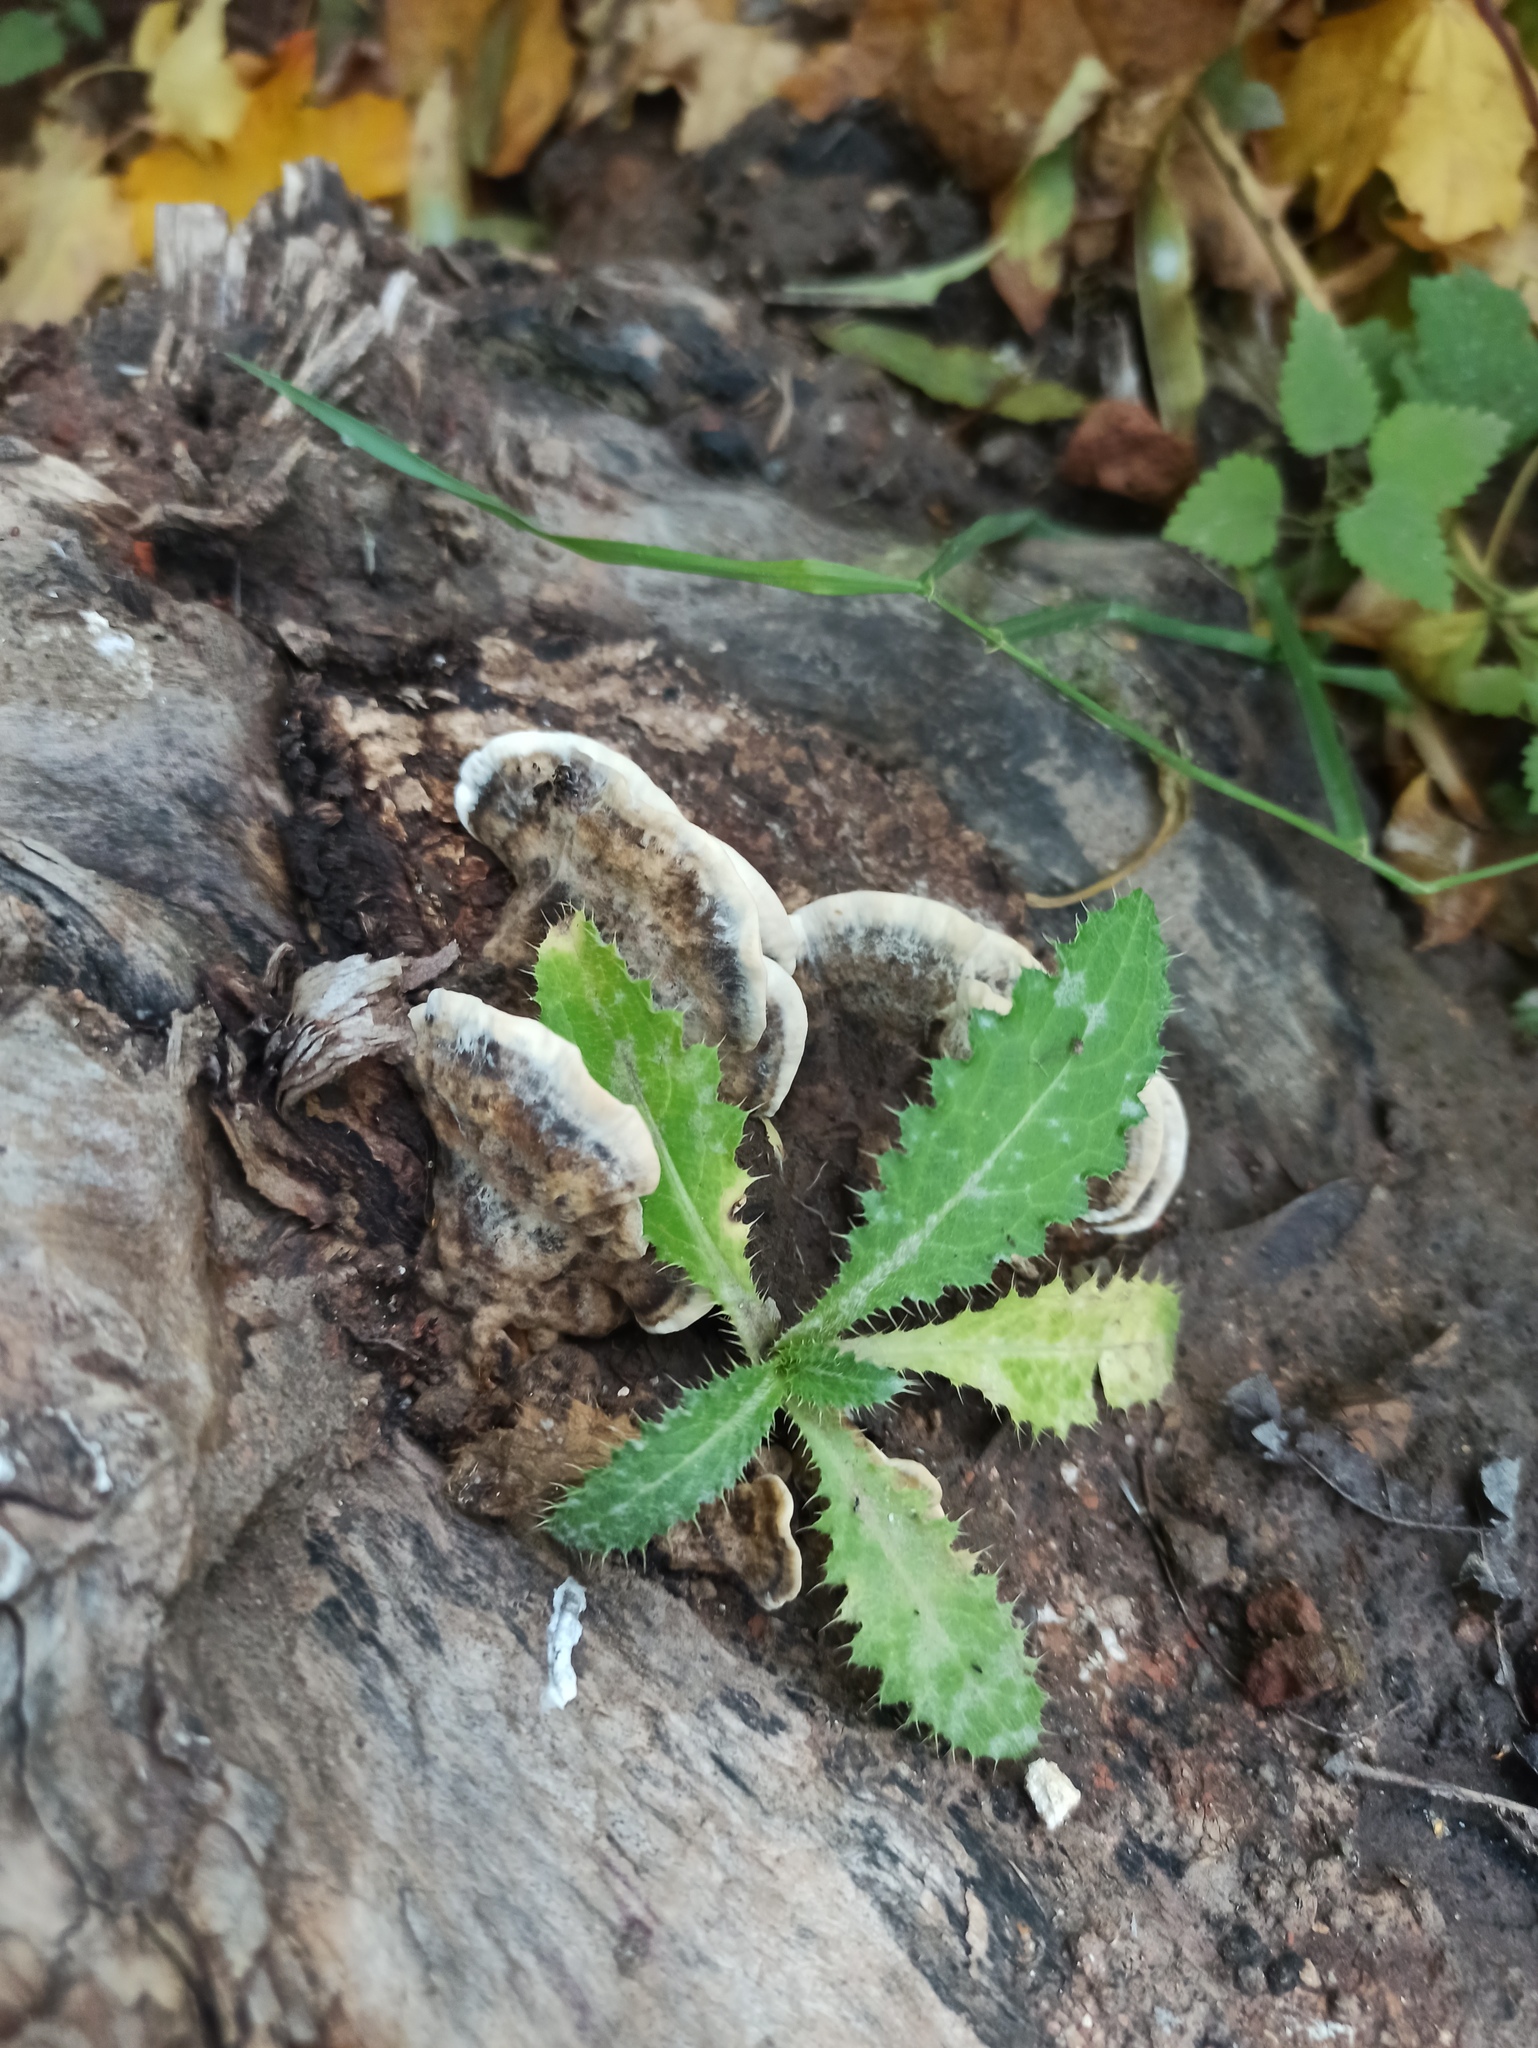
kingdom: Fungi
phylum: Basidiomycota
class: Agaricomycetes
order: Polyporales
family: Phanerochaetaceae
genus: Bjerkandera
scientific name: Bjerkandera adusta
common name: Smoky bracket
